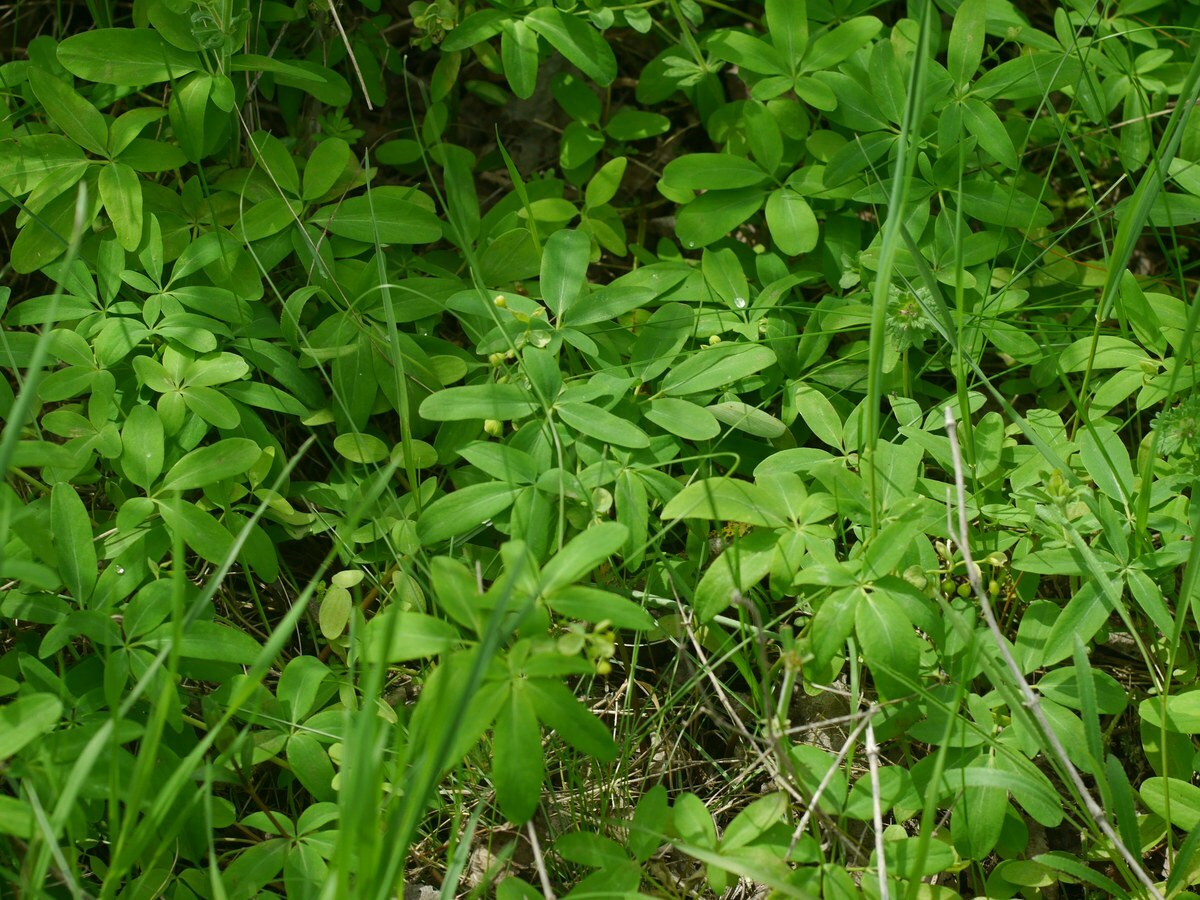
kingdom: Plantae
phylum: Tracheophyta
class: Magnoliopsida
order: Ranunculales
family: Berberidaceae
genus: Gymnospermium
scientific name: Gymnospermium odessanum
